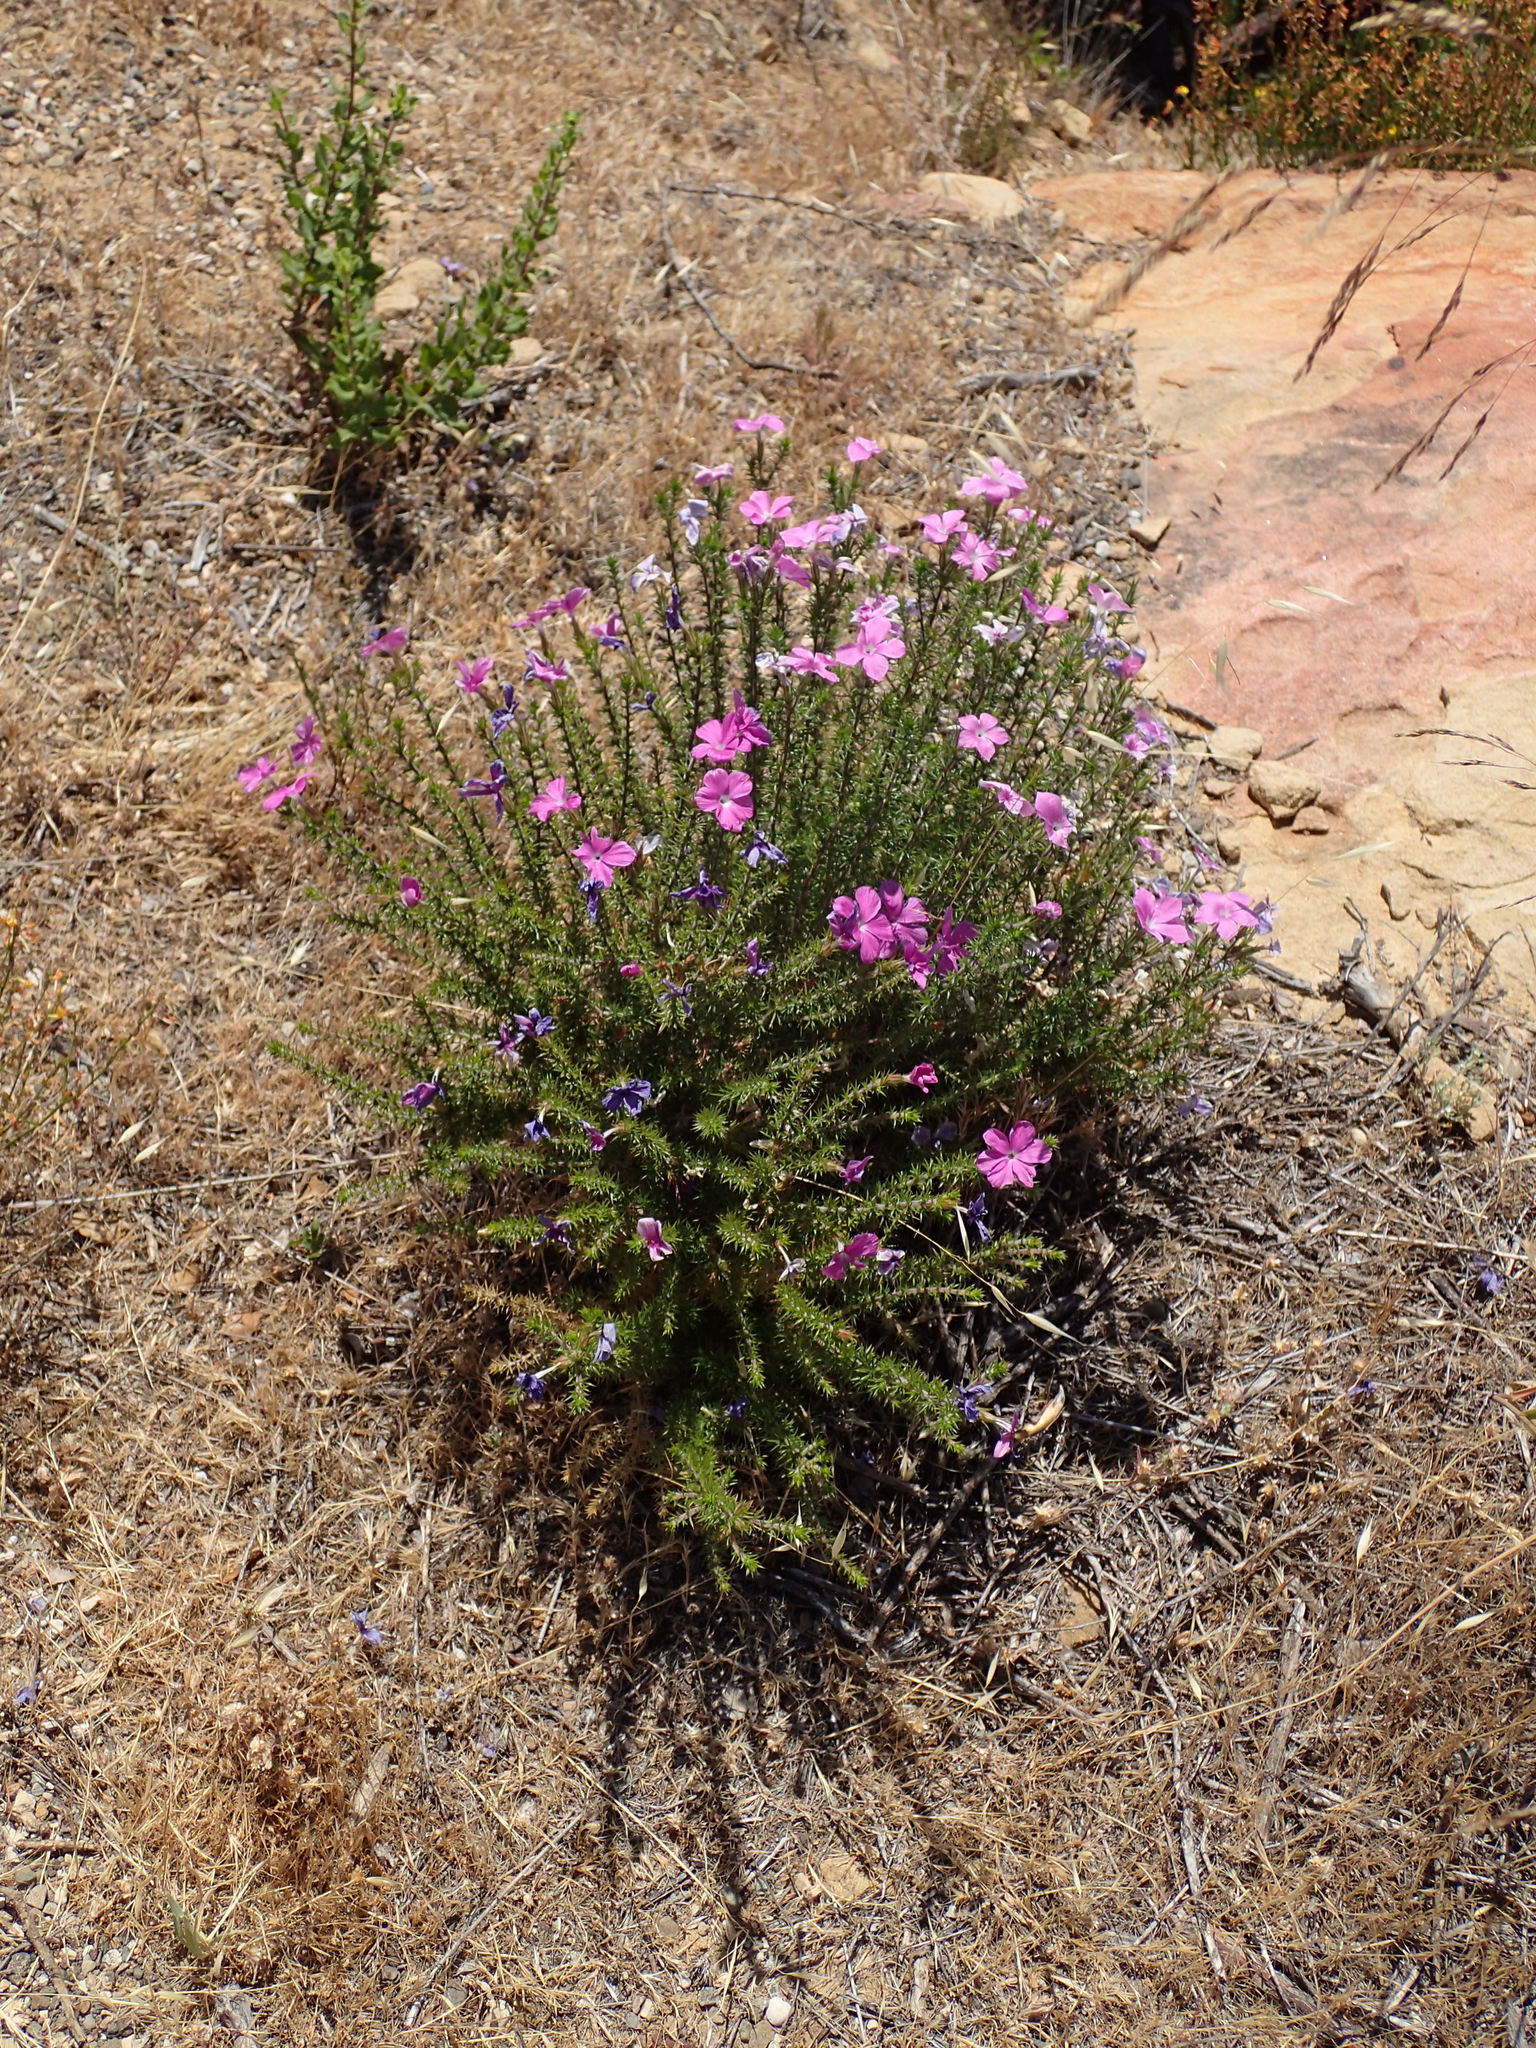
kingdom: Plantae
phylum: Tracheophyta
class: Magnoliopsida
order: Ericales
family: Polemoniaceae
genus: Linanthus
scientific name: Linanthus californicus
